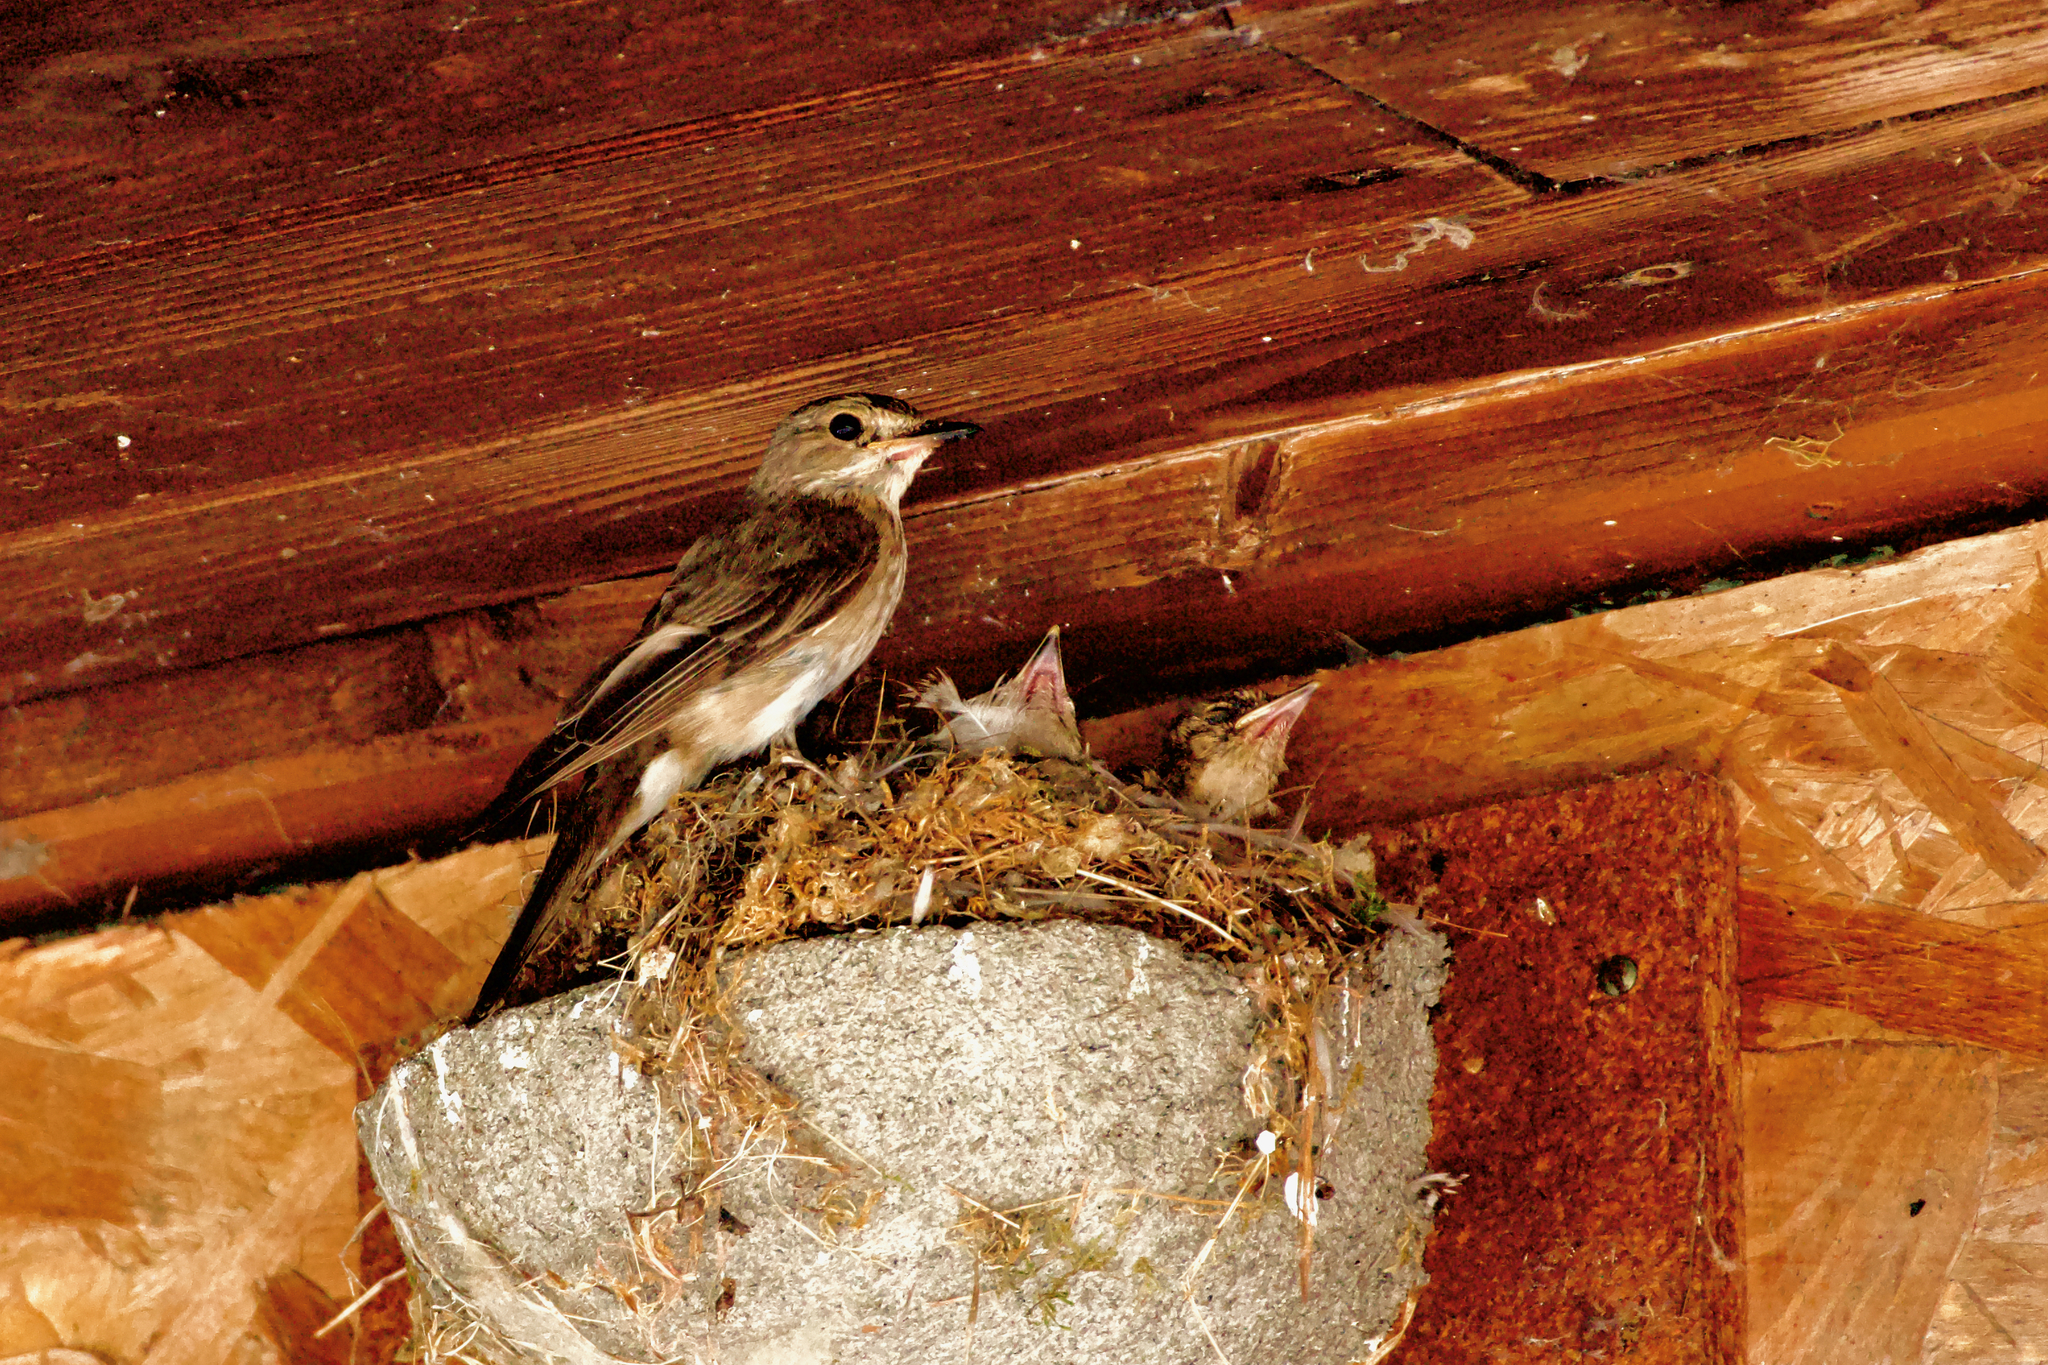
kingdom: Animalia
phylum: Chordata
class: Aves
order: Passeriformes
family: Muscicapidae
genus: Muscicapa
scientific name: Muscicapa striata
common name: Spotted flycatcher
